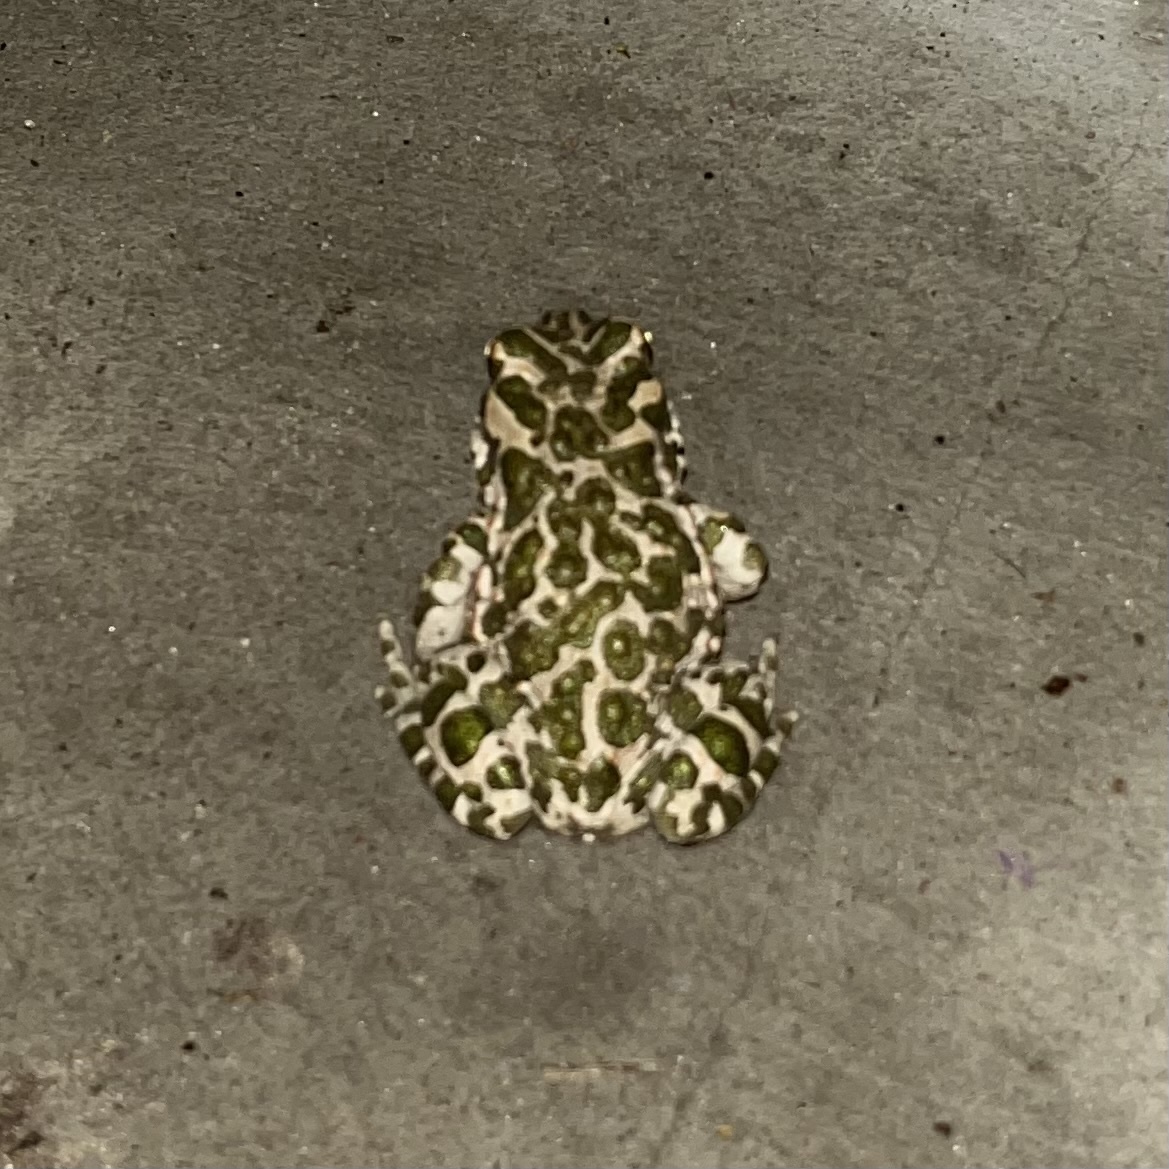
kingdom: Animalia
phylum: Chordata
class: Amphibia
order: Anura
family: Bufonidae
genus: Bufotes
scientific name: Bufotes viridis
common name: European green toad
